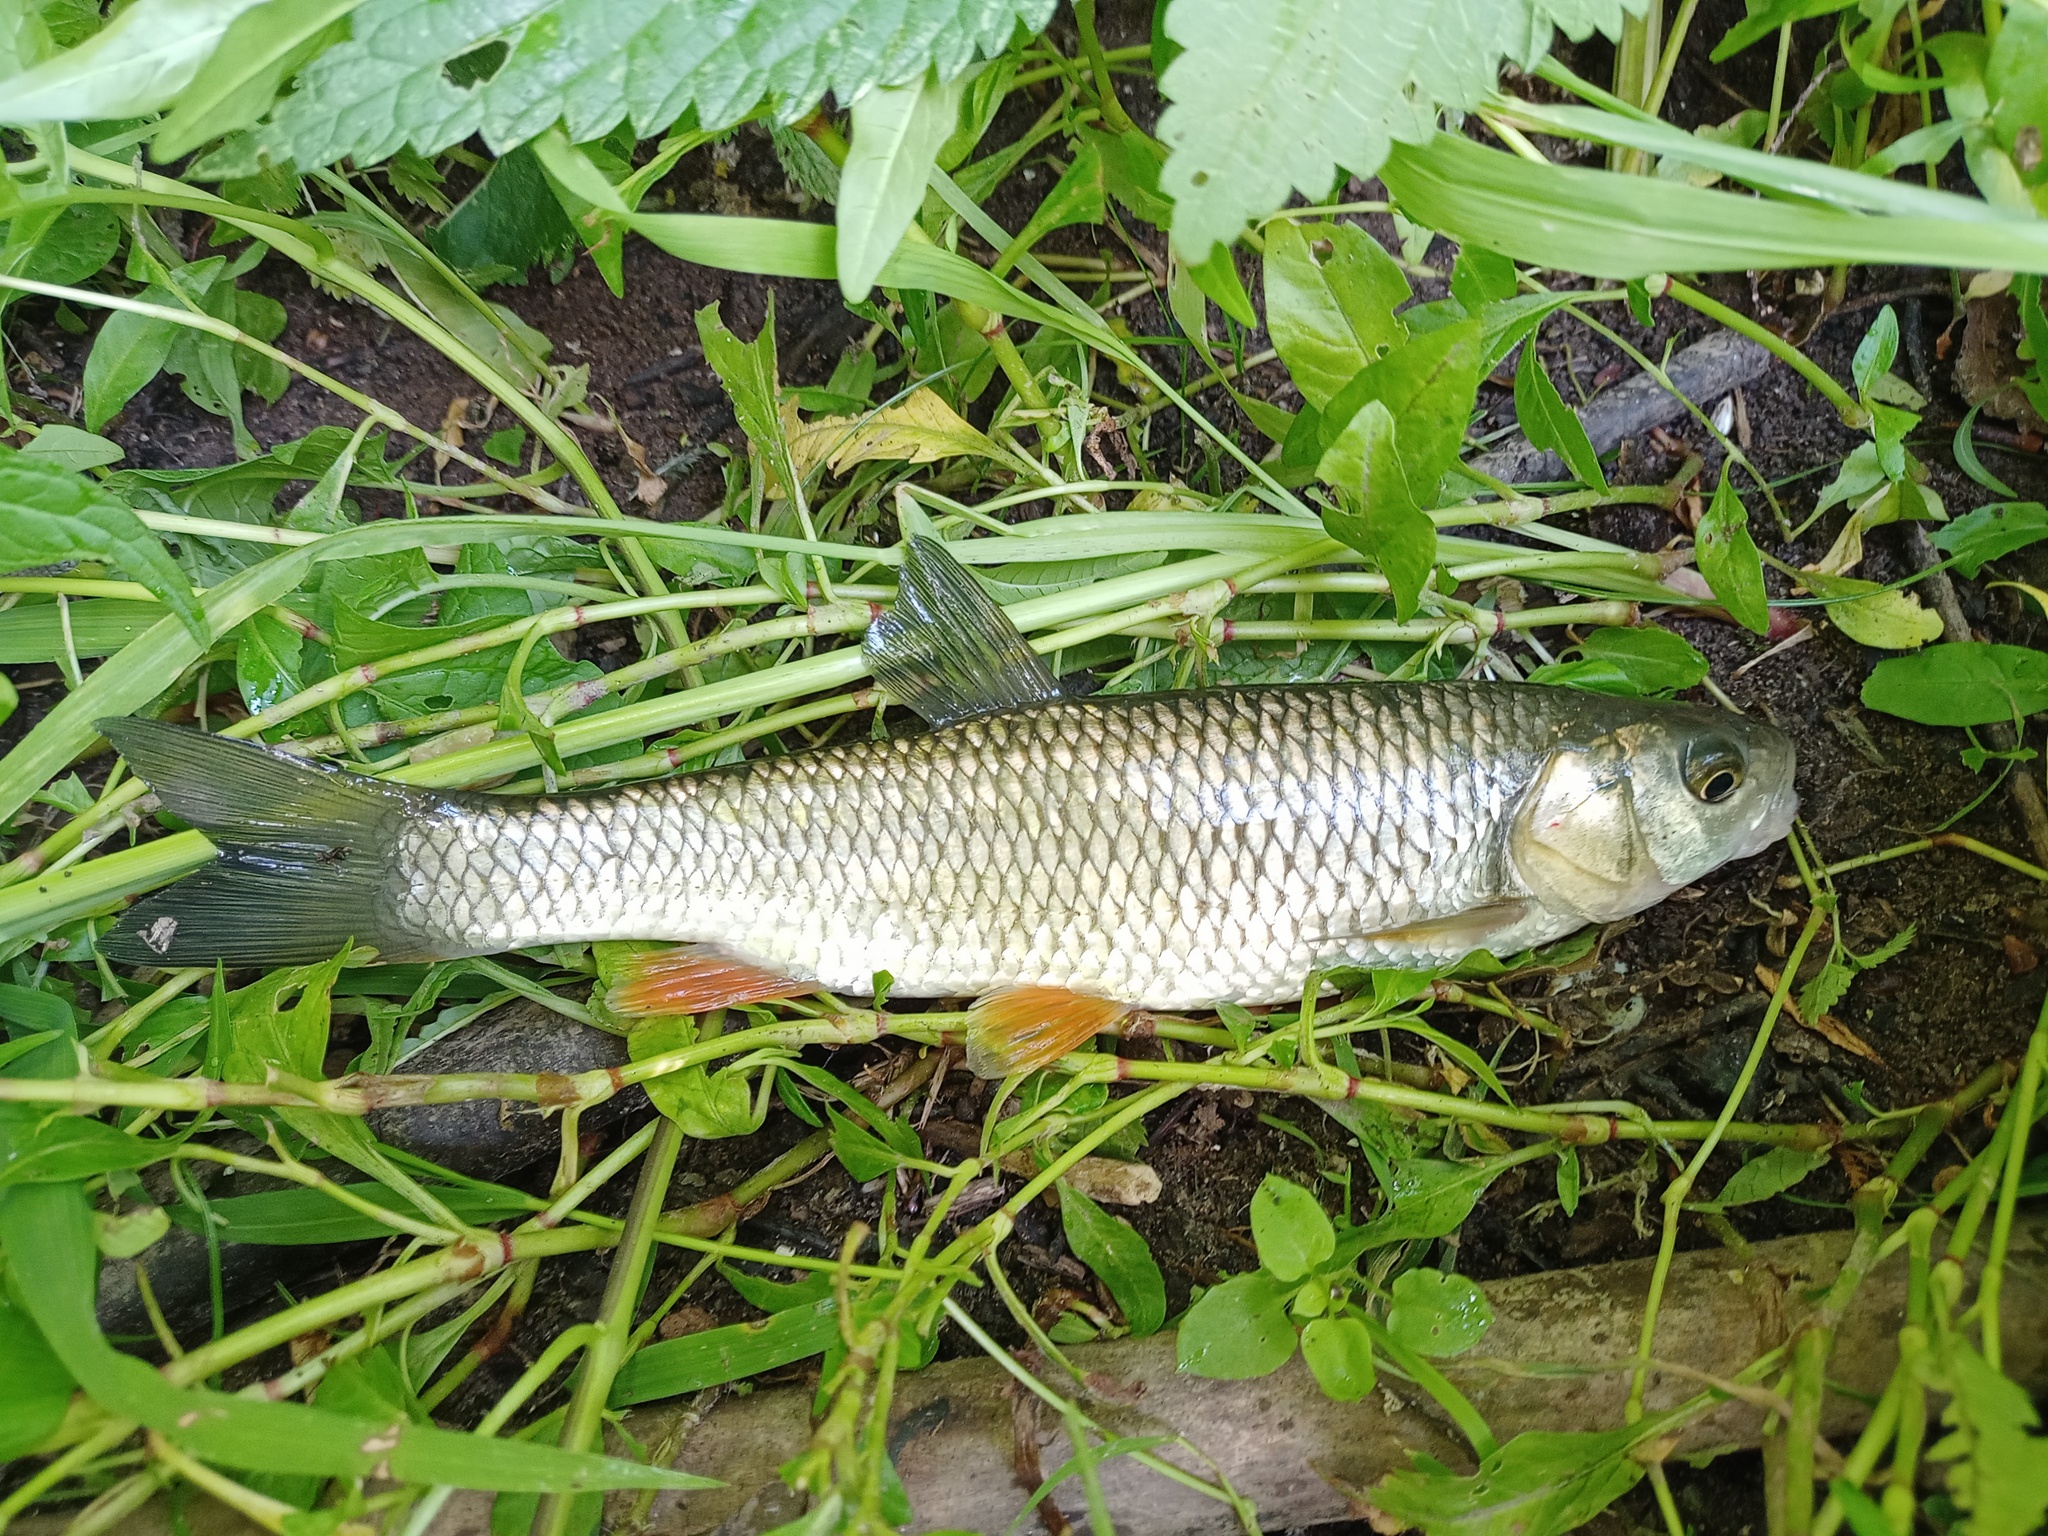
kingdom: Animalia
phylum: Chordata
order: Cypriniformes
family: Cyprinidae
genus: Squalius
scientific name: Squalius cephalus
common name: Chub
